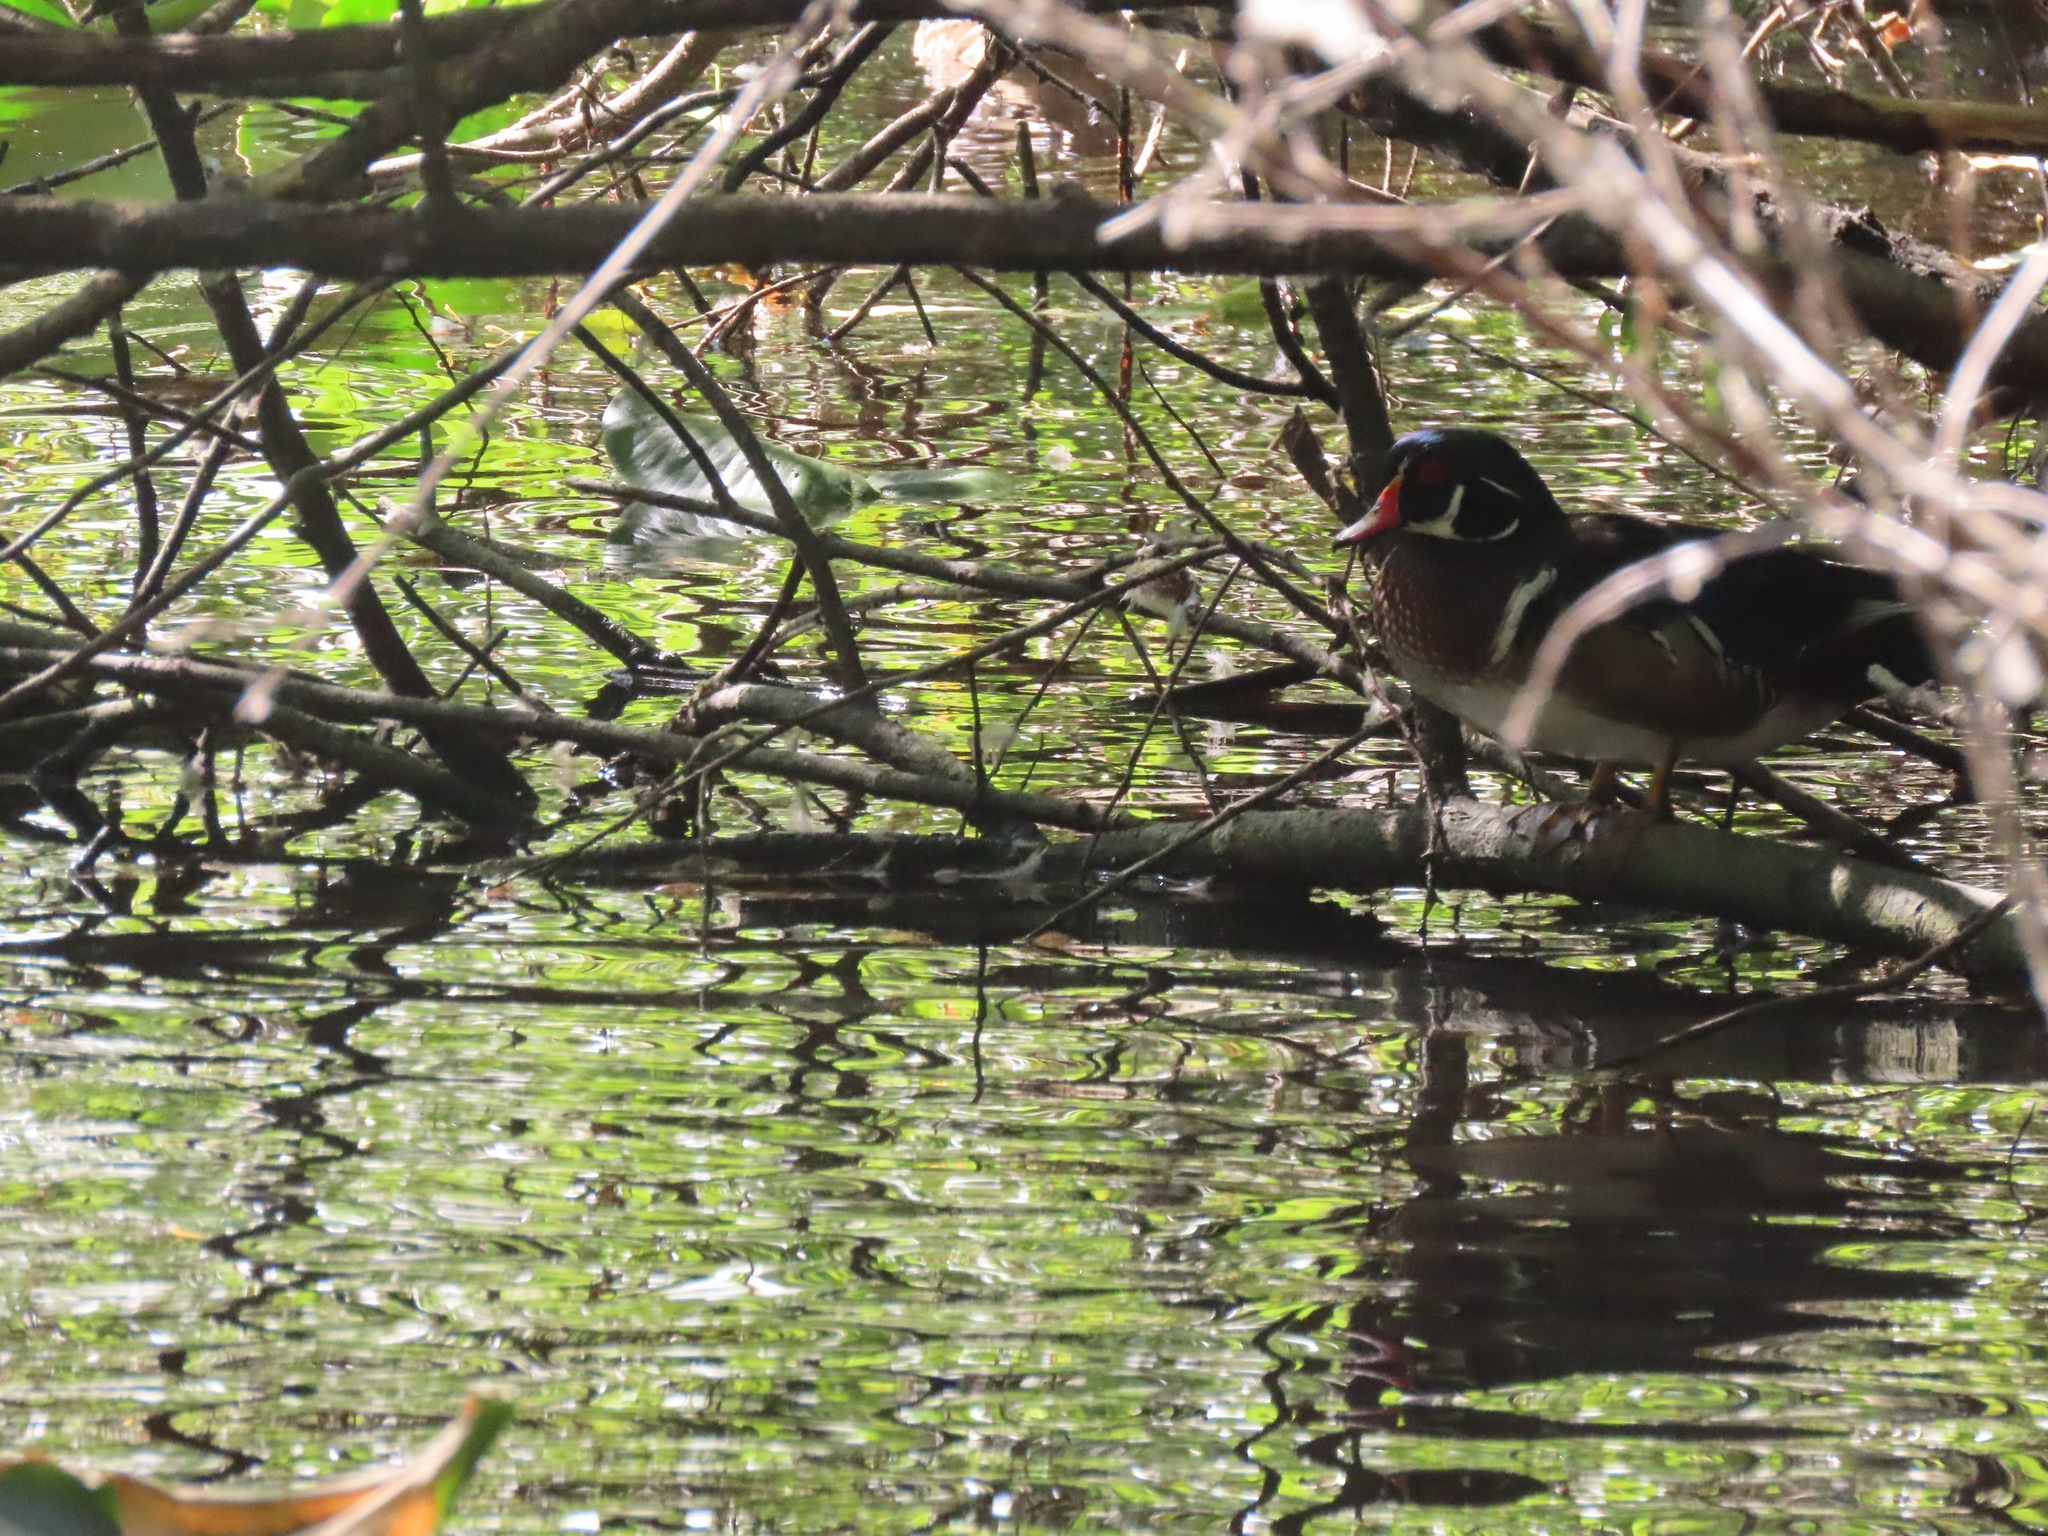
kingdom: Animalia
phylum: Chordata
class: Aves
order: Anseriformes
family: Anatidae
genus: Aix
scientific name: Aix sponsa
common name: Wood duck
